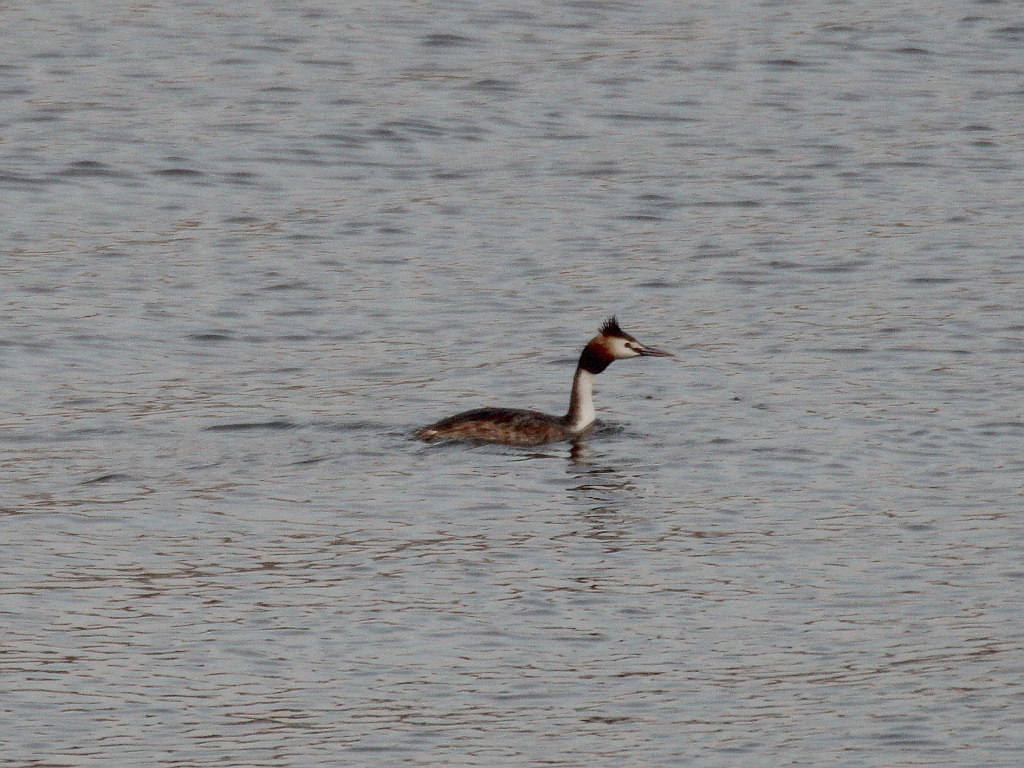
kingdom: Animalia
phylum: Chordata
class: Aves
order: Podicipediformes
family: Podicipedidae
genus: Podiceps
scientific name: Podiceps cristatus
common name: Great crested grebe
